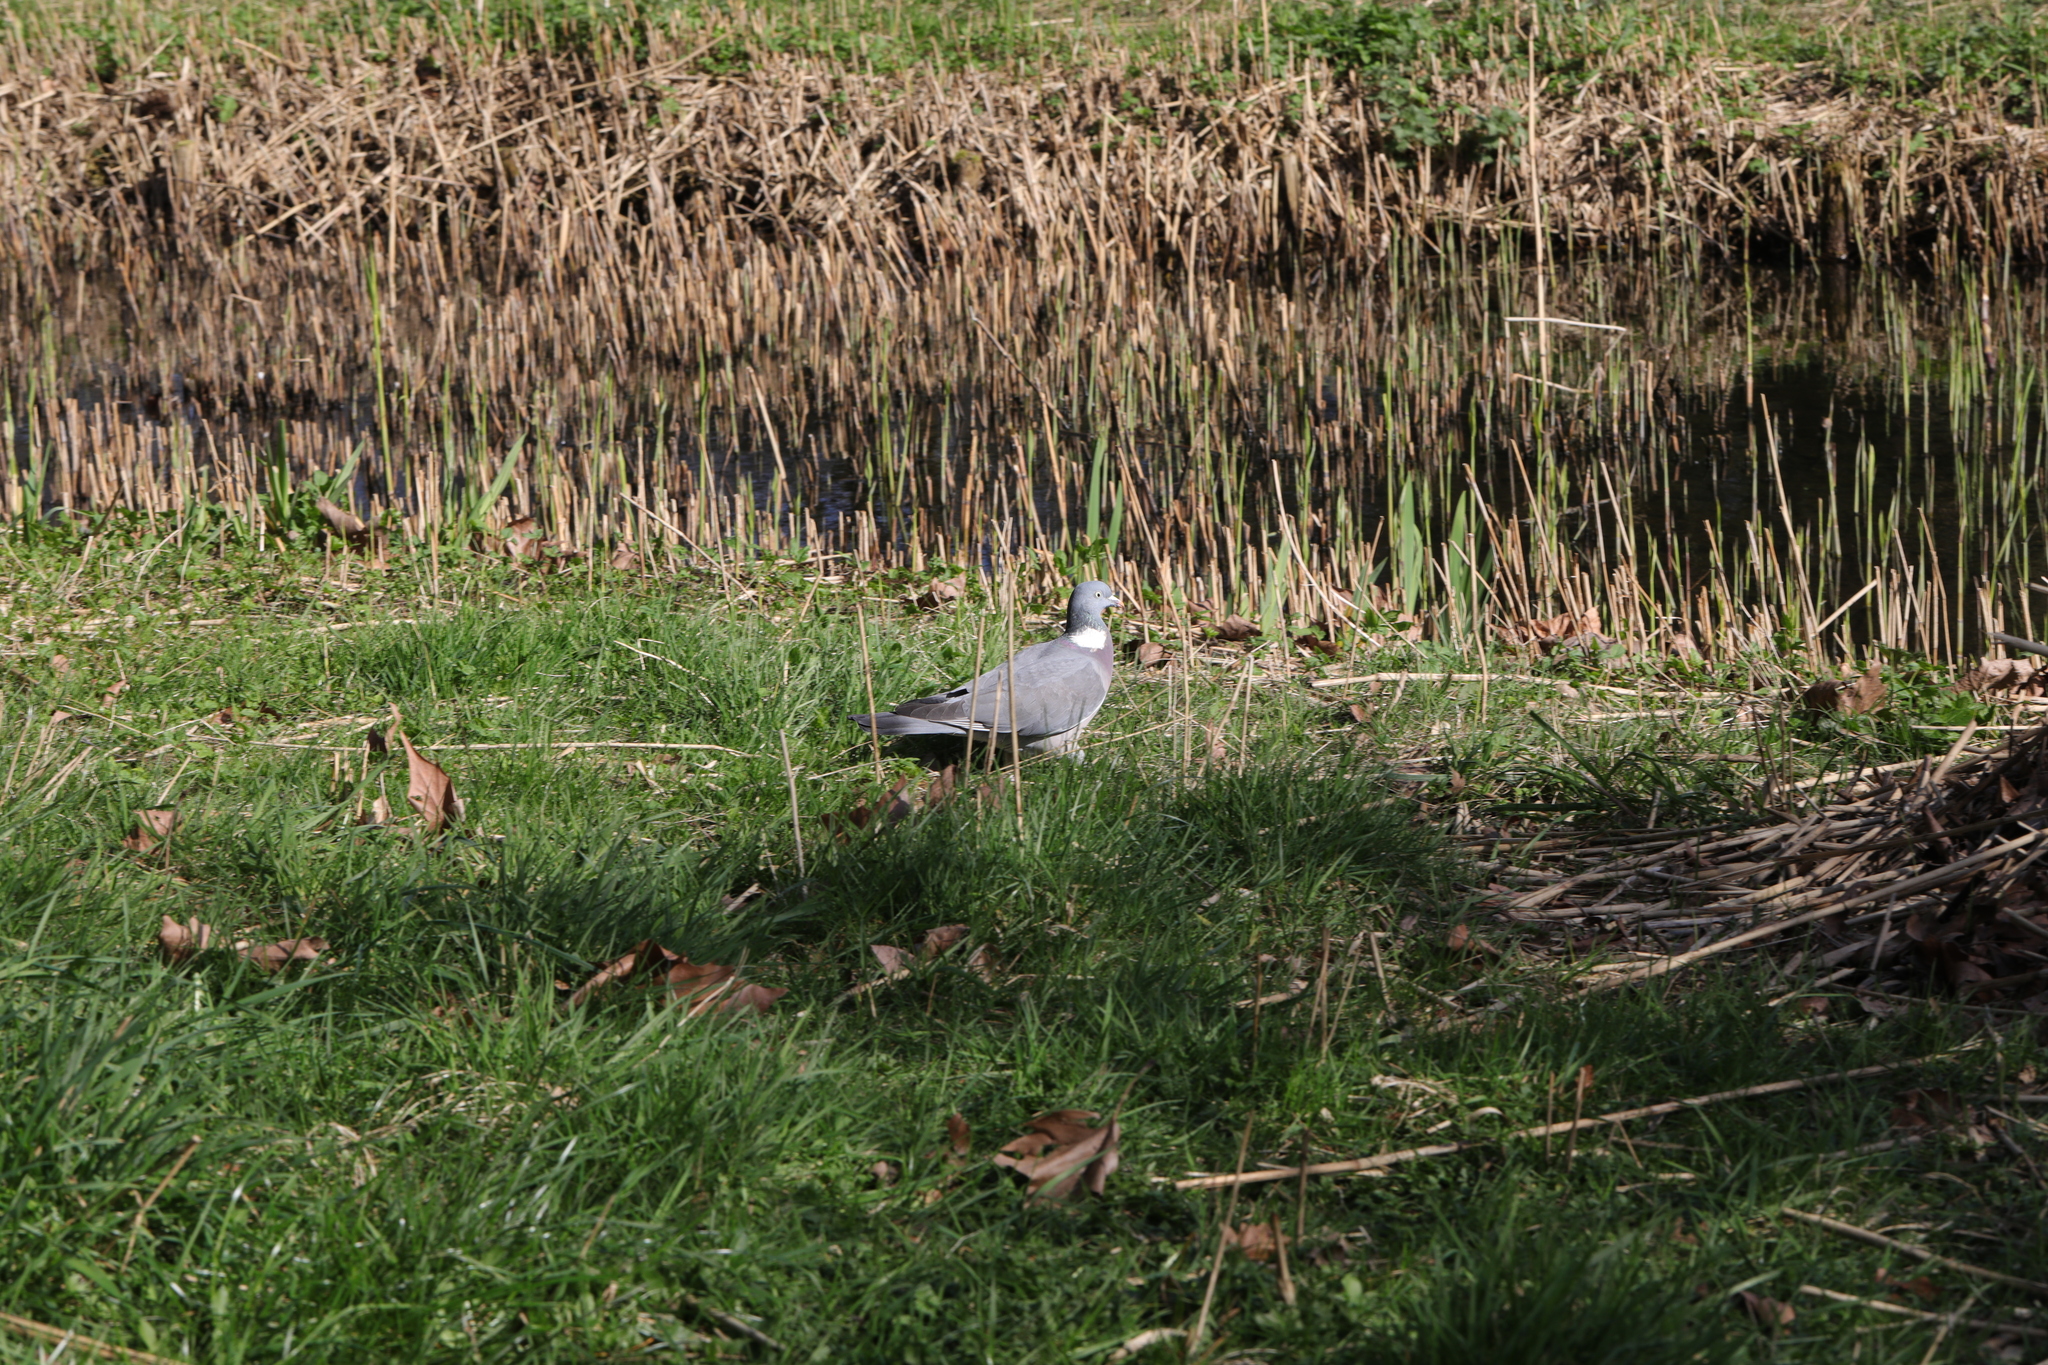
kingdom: Animalia
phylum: Chordata
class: Aves
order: Columbiformes
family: Columbidae
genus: Columba
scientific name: Columba palumbus
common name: Common wood pigeon
